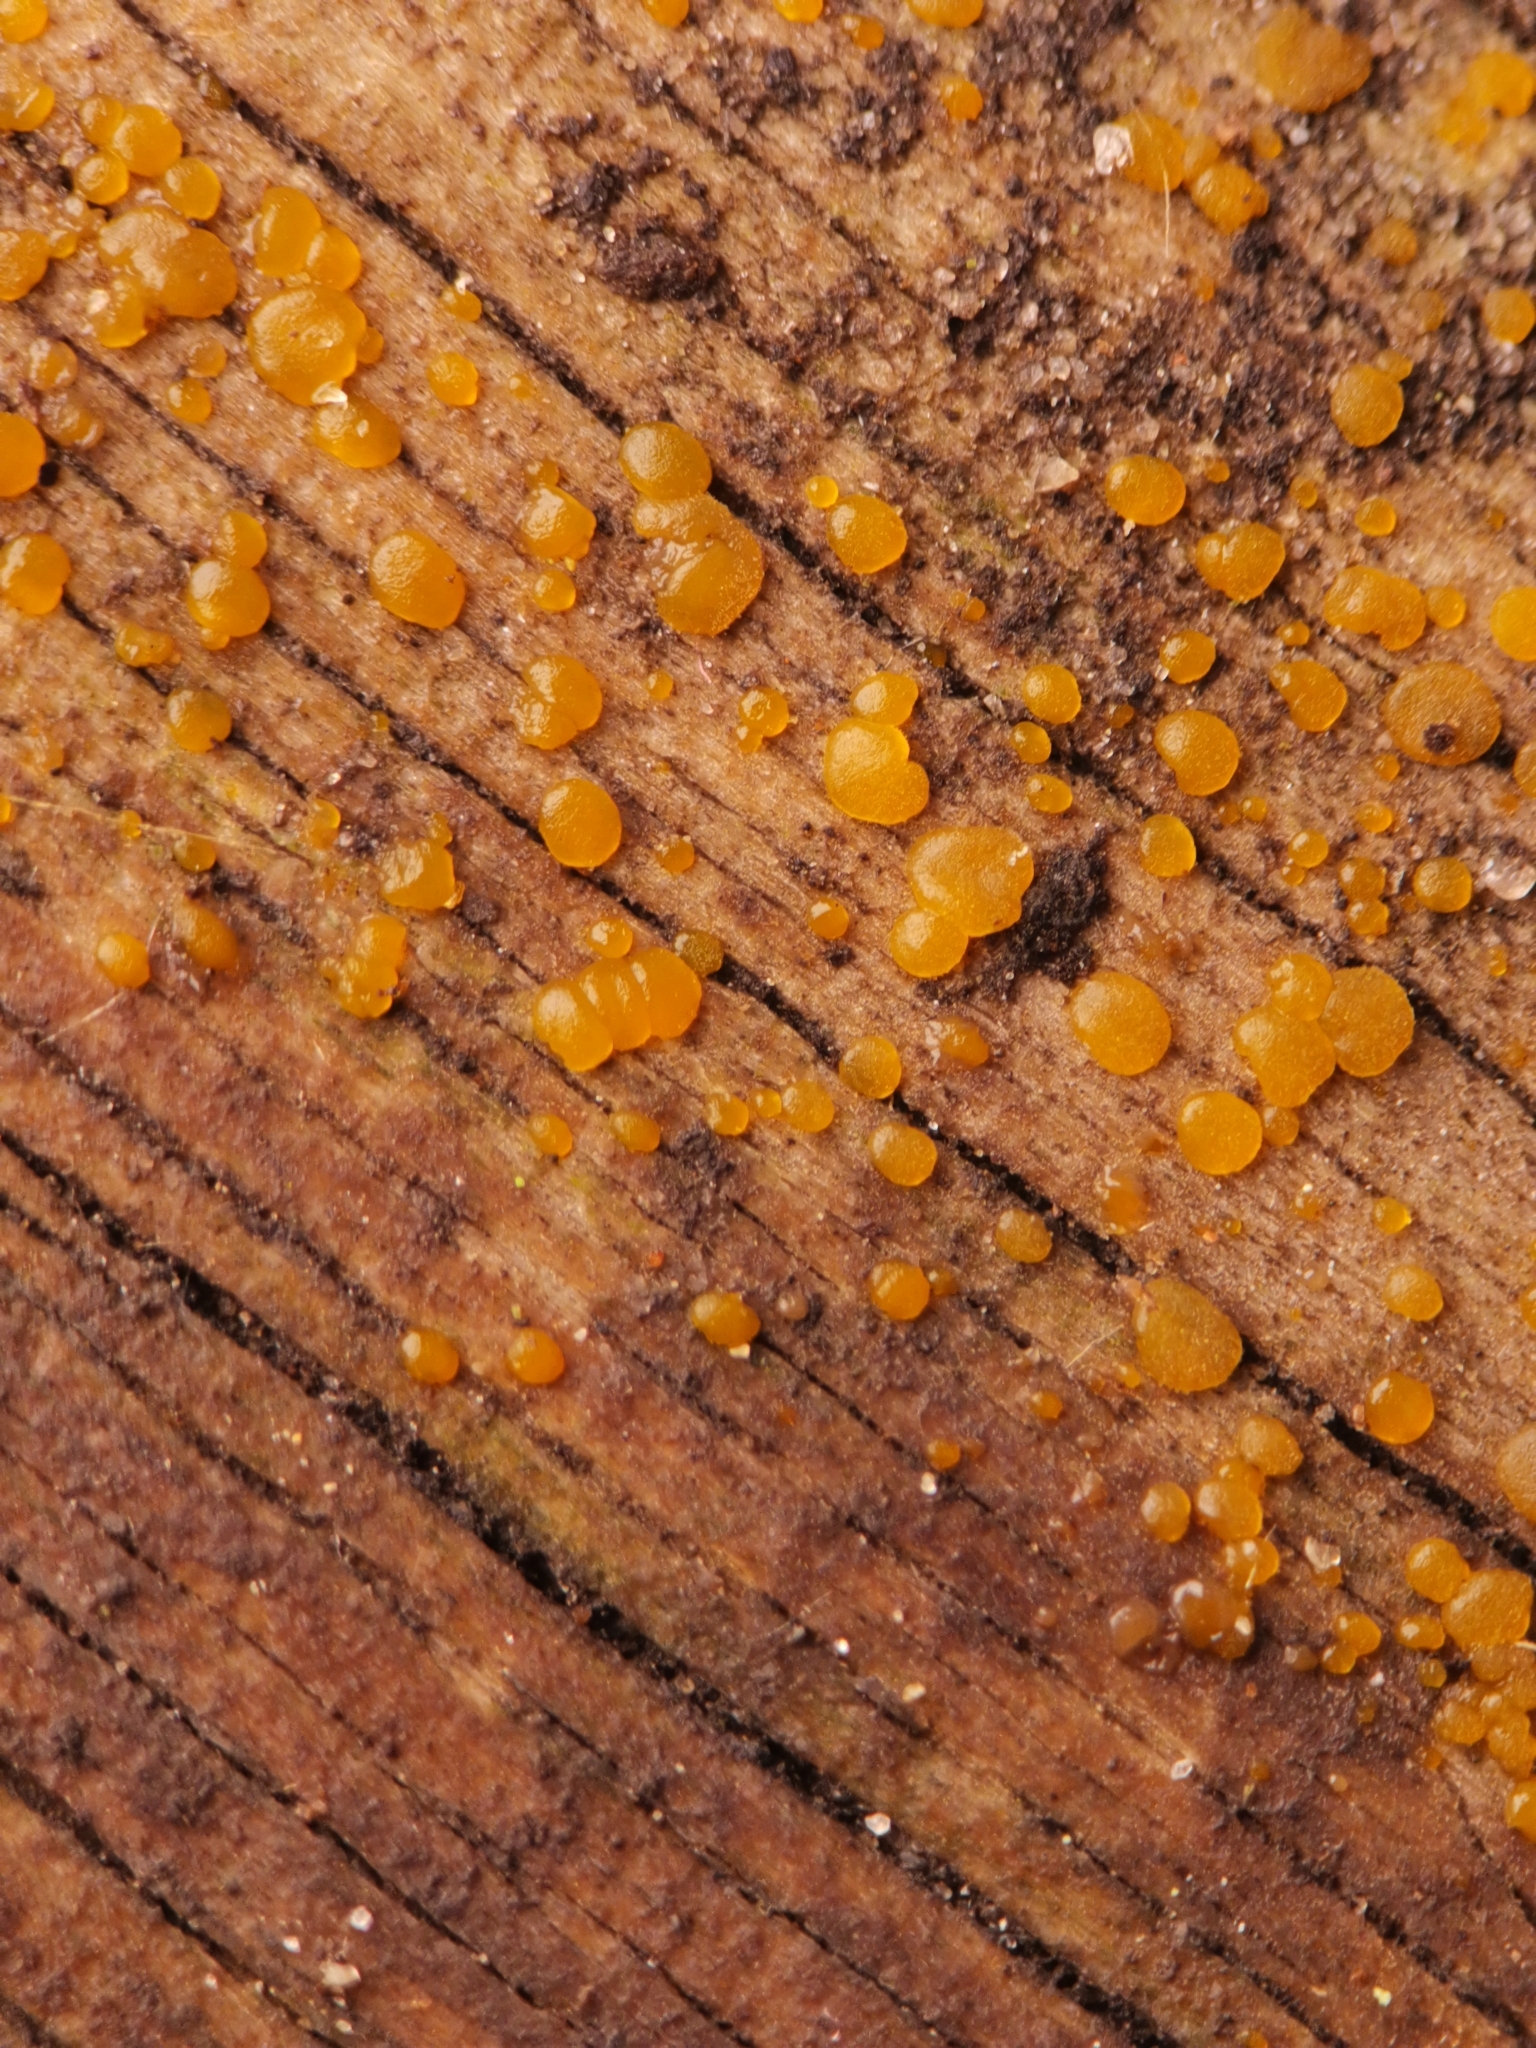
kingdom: Fungi
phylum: Basidiomycota
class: Dacrymycetes
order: Dacrymycetales
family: Dacrymycetaceae
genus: Dacrymyces
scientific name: Dacrymyces stillatus
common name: Common jelly spot
